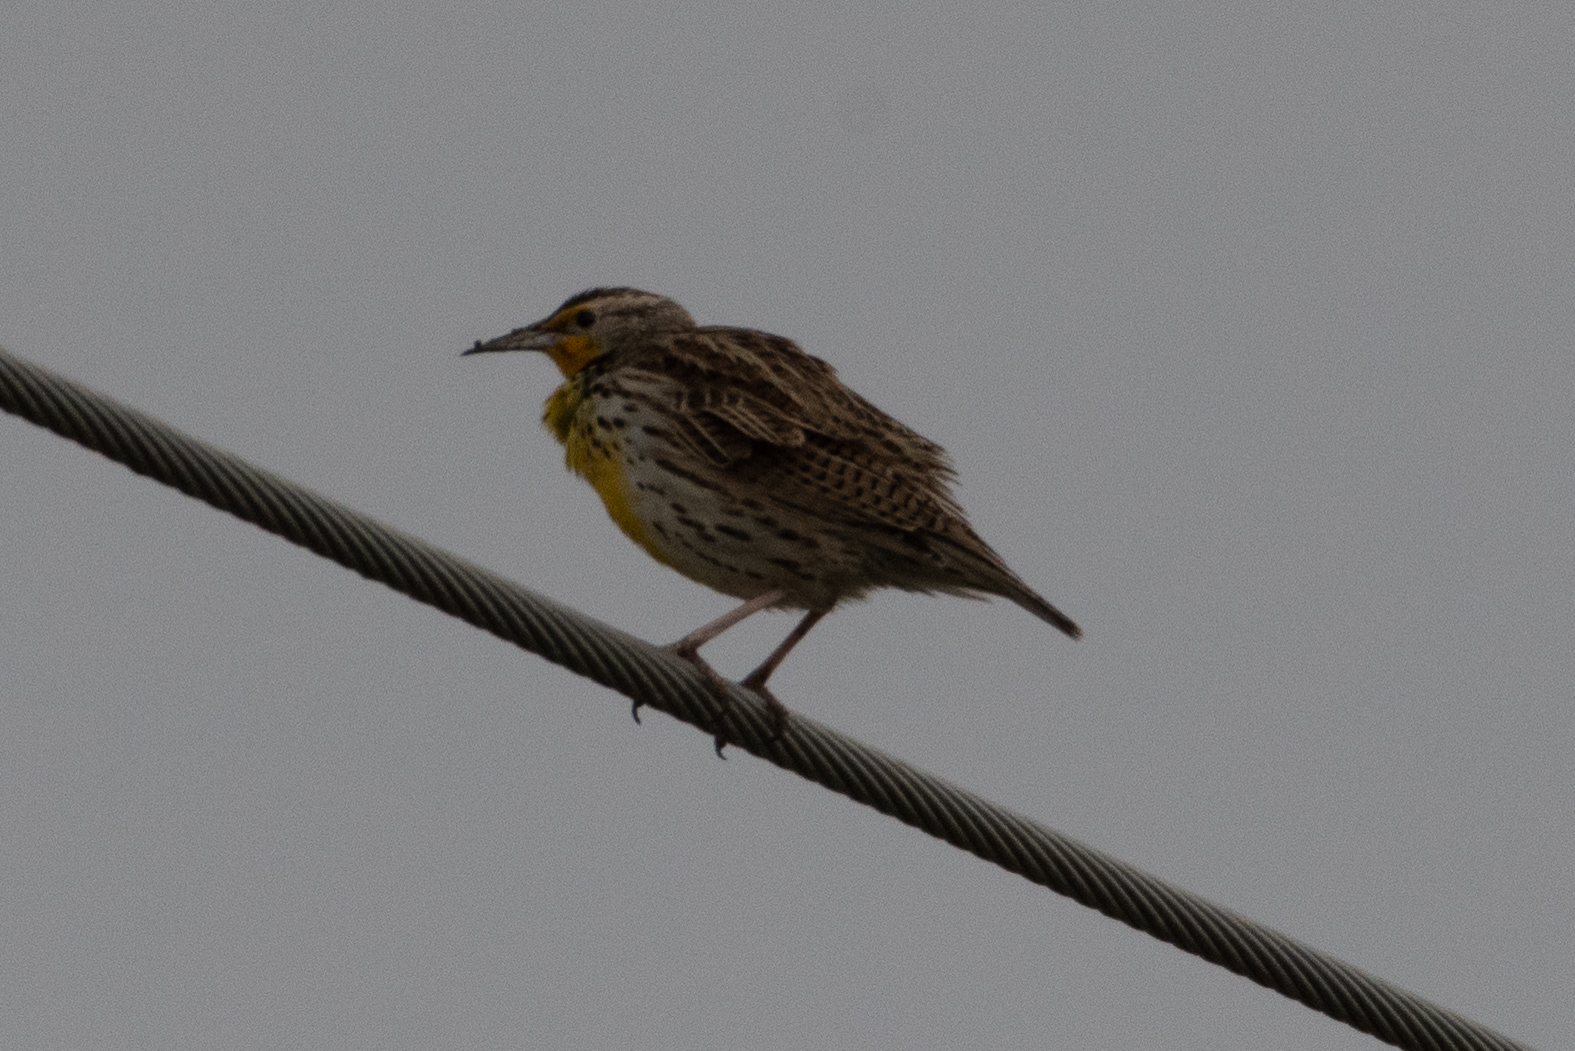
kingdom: Animalia
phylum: Chordata
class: Aves
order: Passeriformes
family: Icteridae
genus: Sturnella
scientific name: Sturnella neglecta
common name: Western meadowlark
